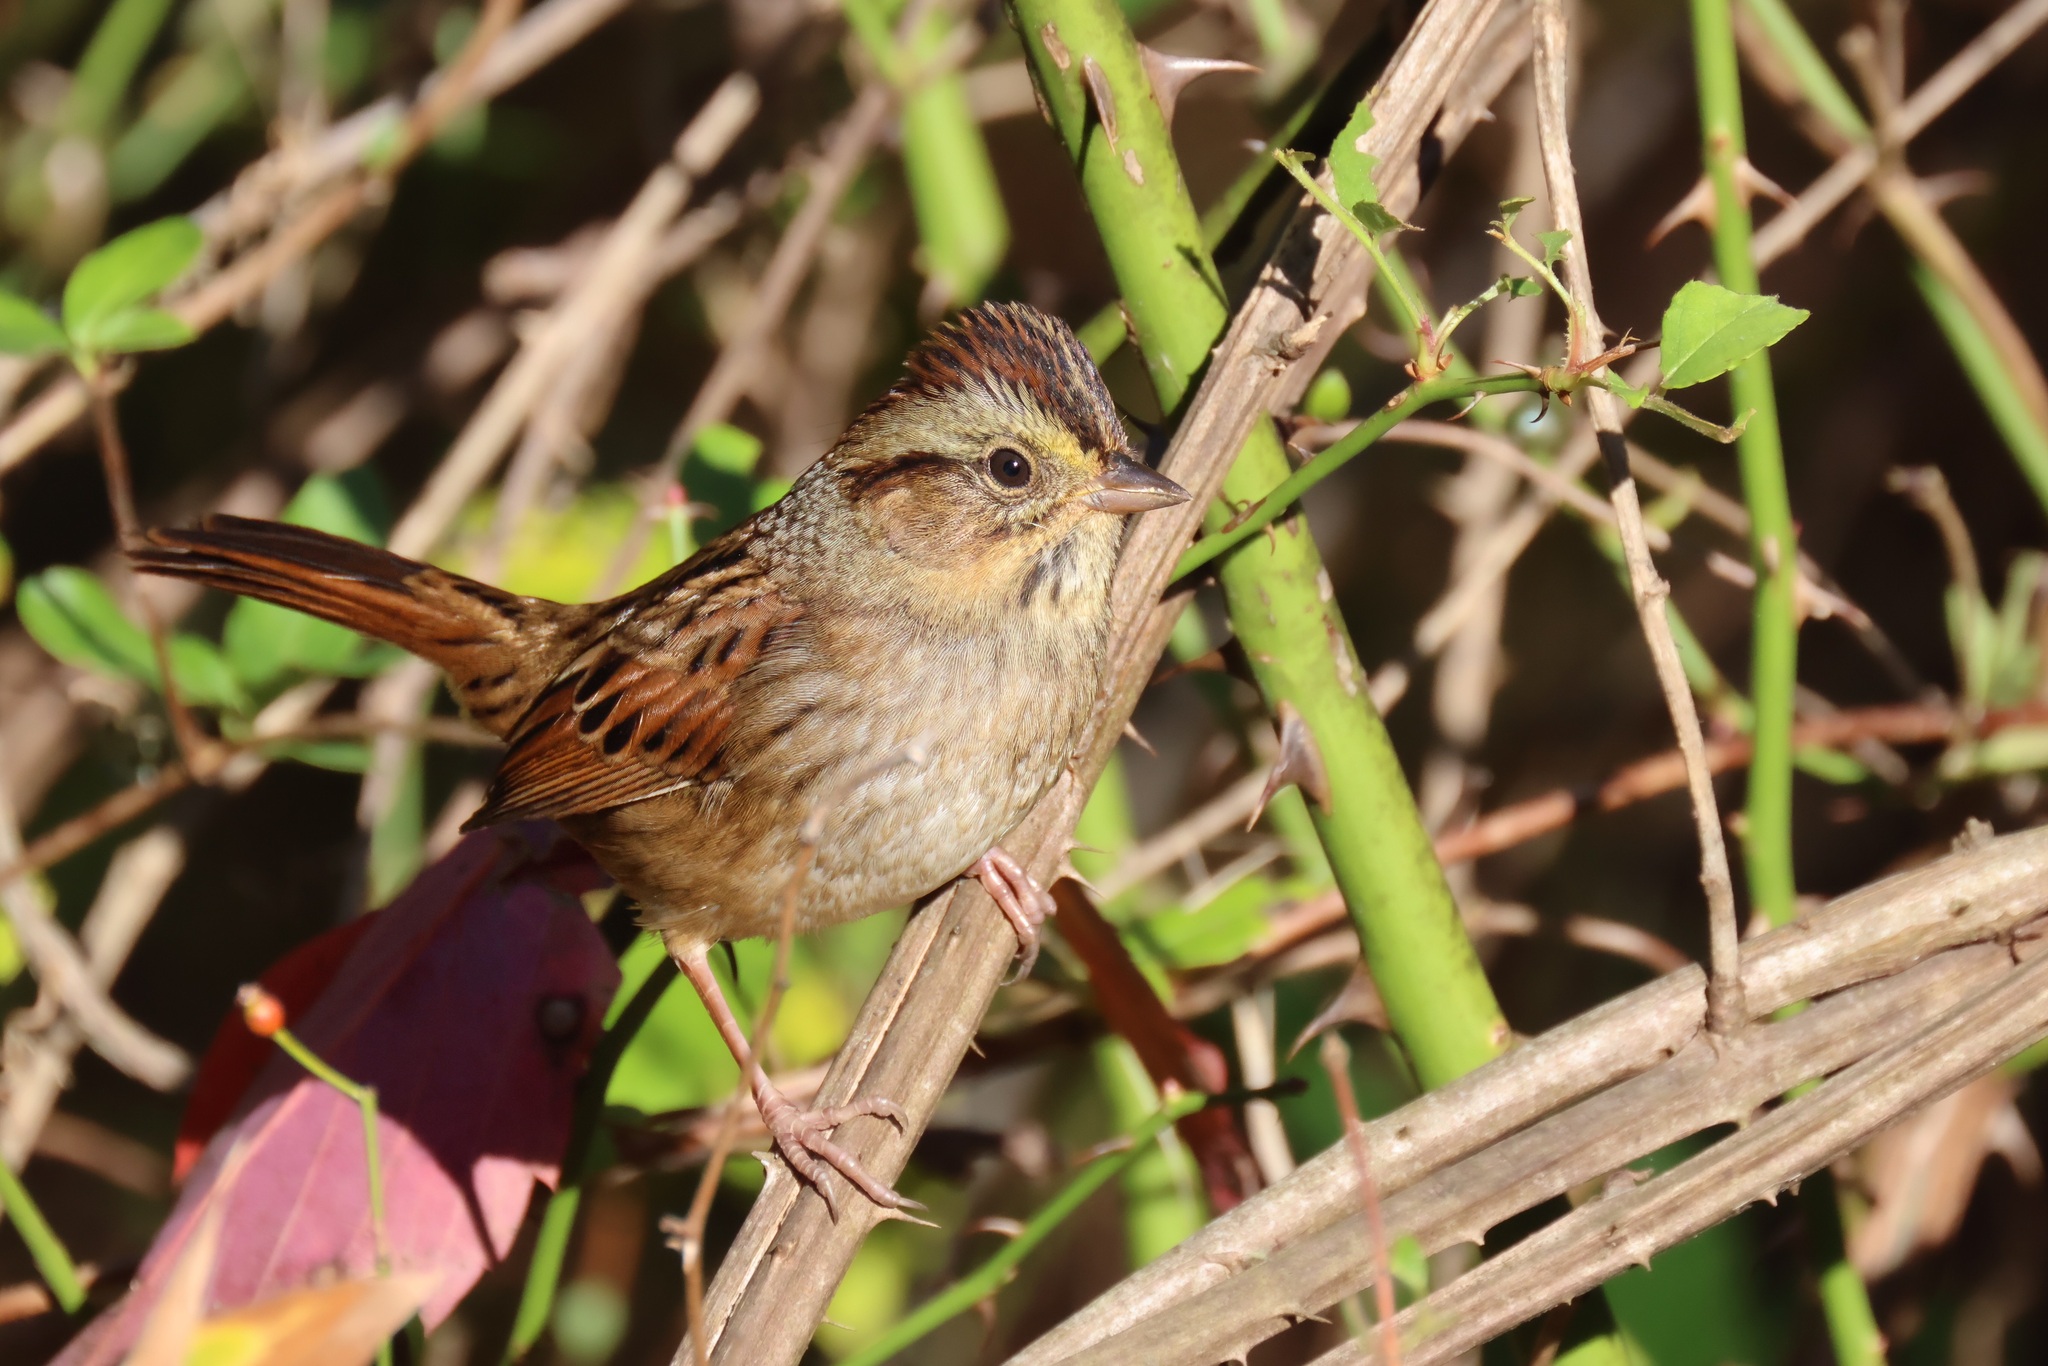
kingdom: Animalia
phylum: Chordata
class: Aves
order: Passeriformes
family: Passerellidae
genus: Melospiza
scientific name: Melospiza georgiana
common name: Swamp sparrow
